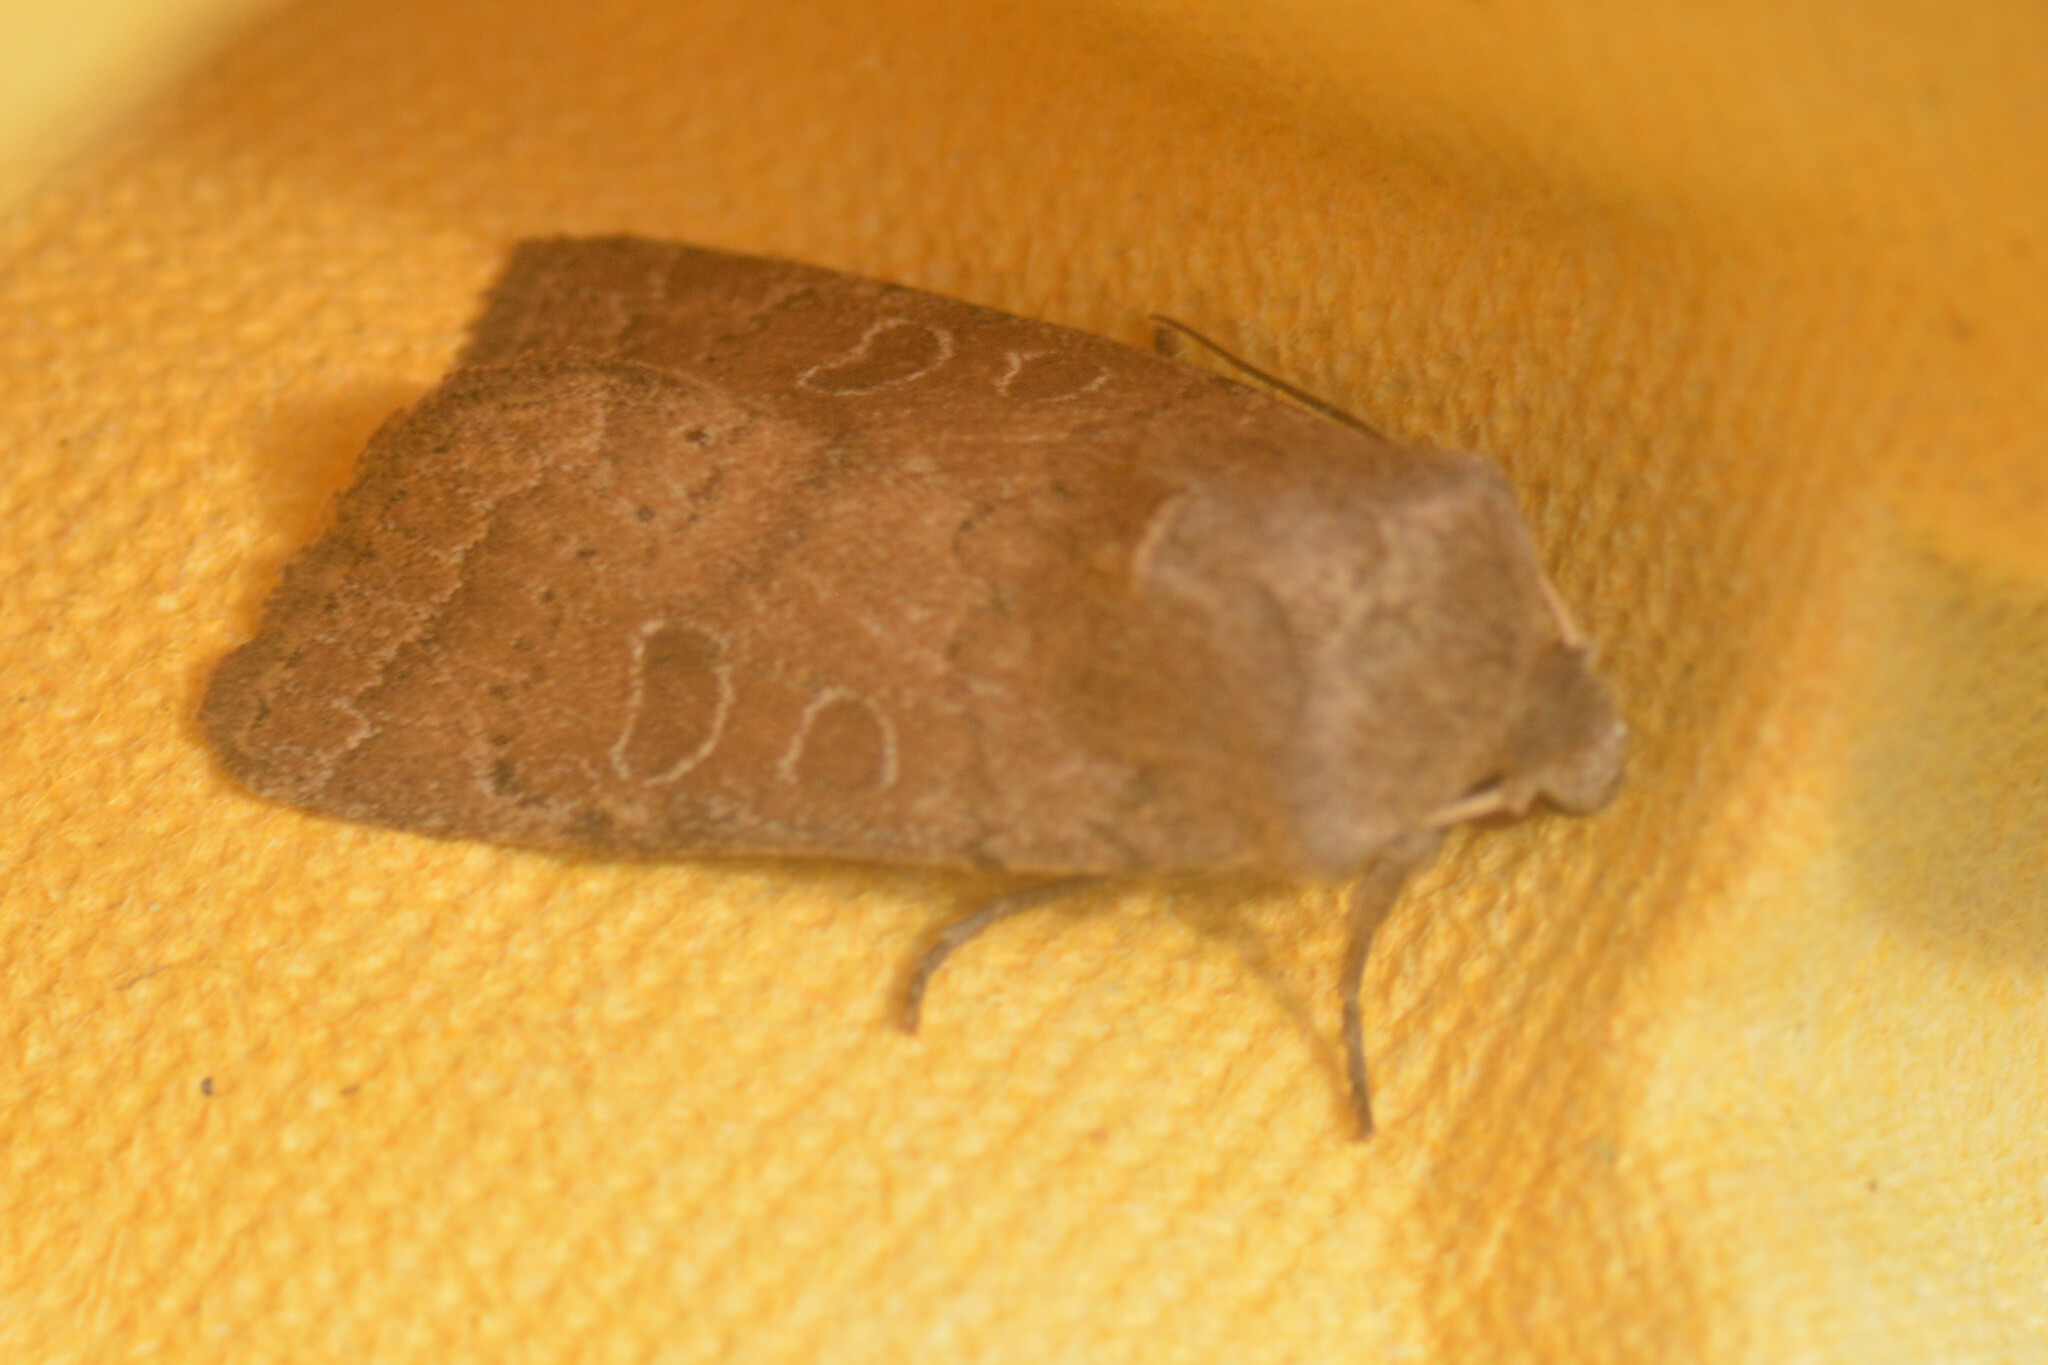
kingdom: Animalia
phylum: Arthropoda
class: Insecta
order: Lepidoptera
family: Noctuidae
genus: Hoplodrina
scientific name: Hoplodrina octogenaria
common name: Uncertain
